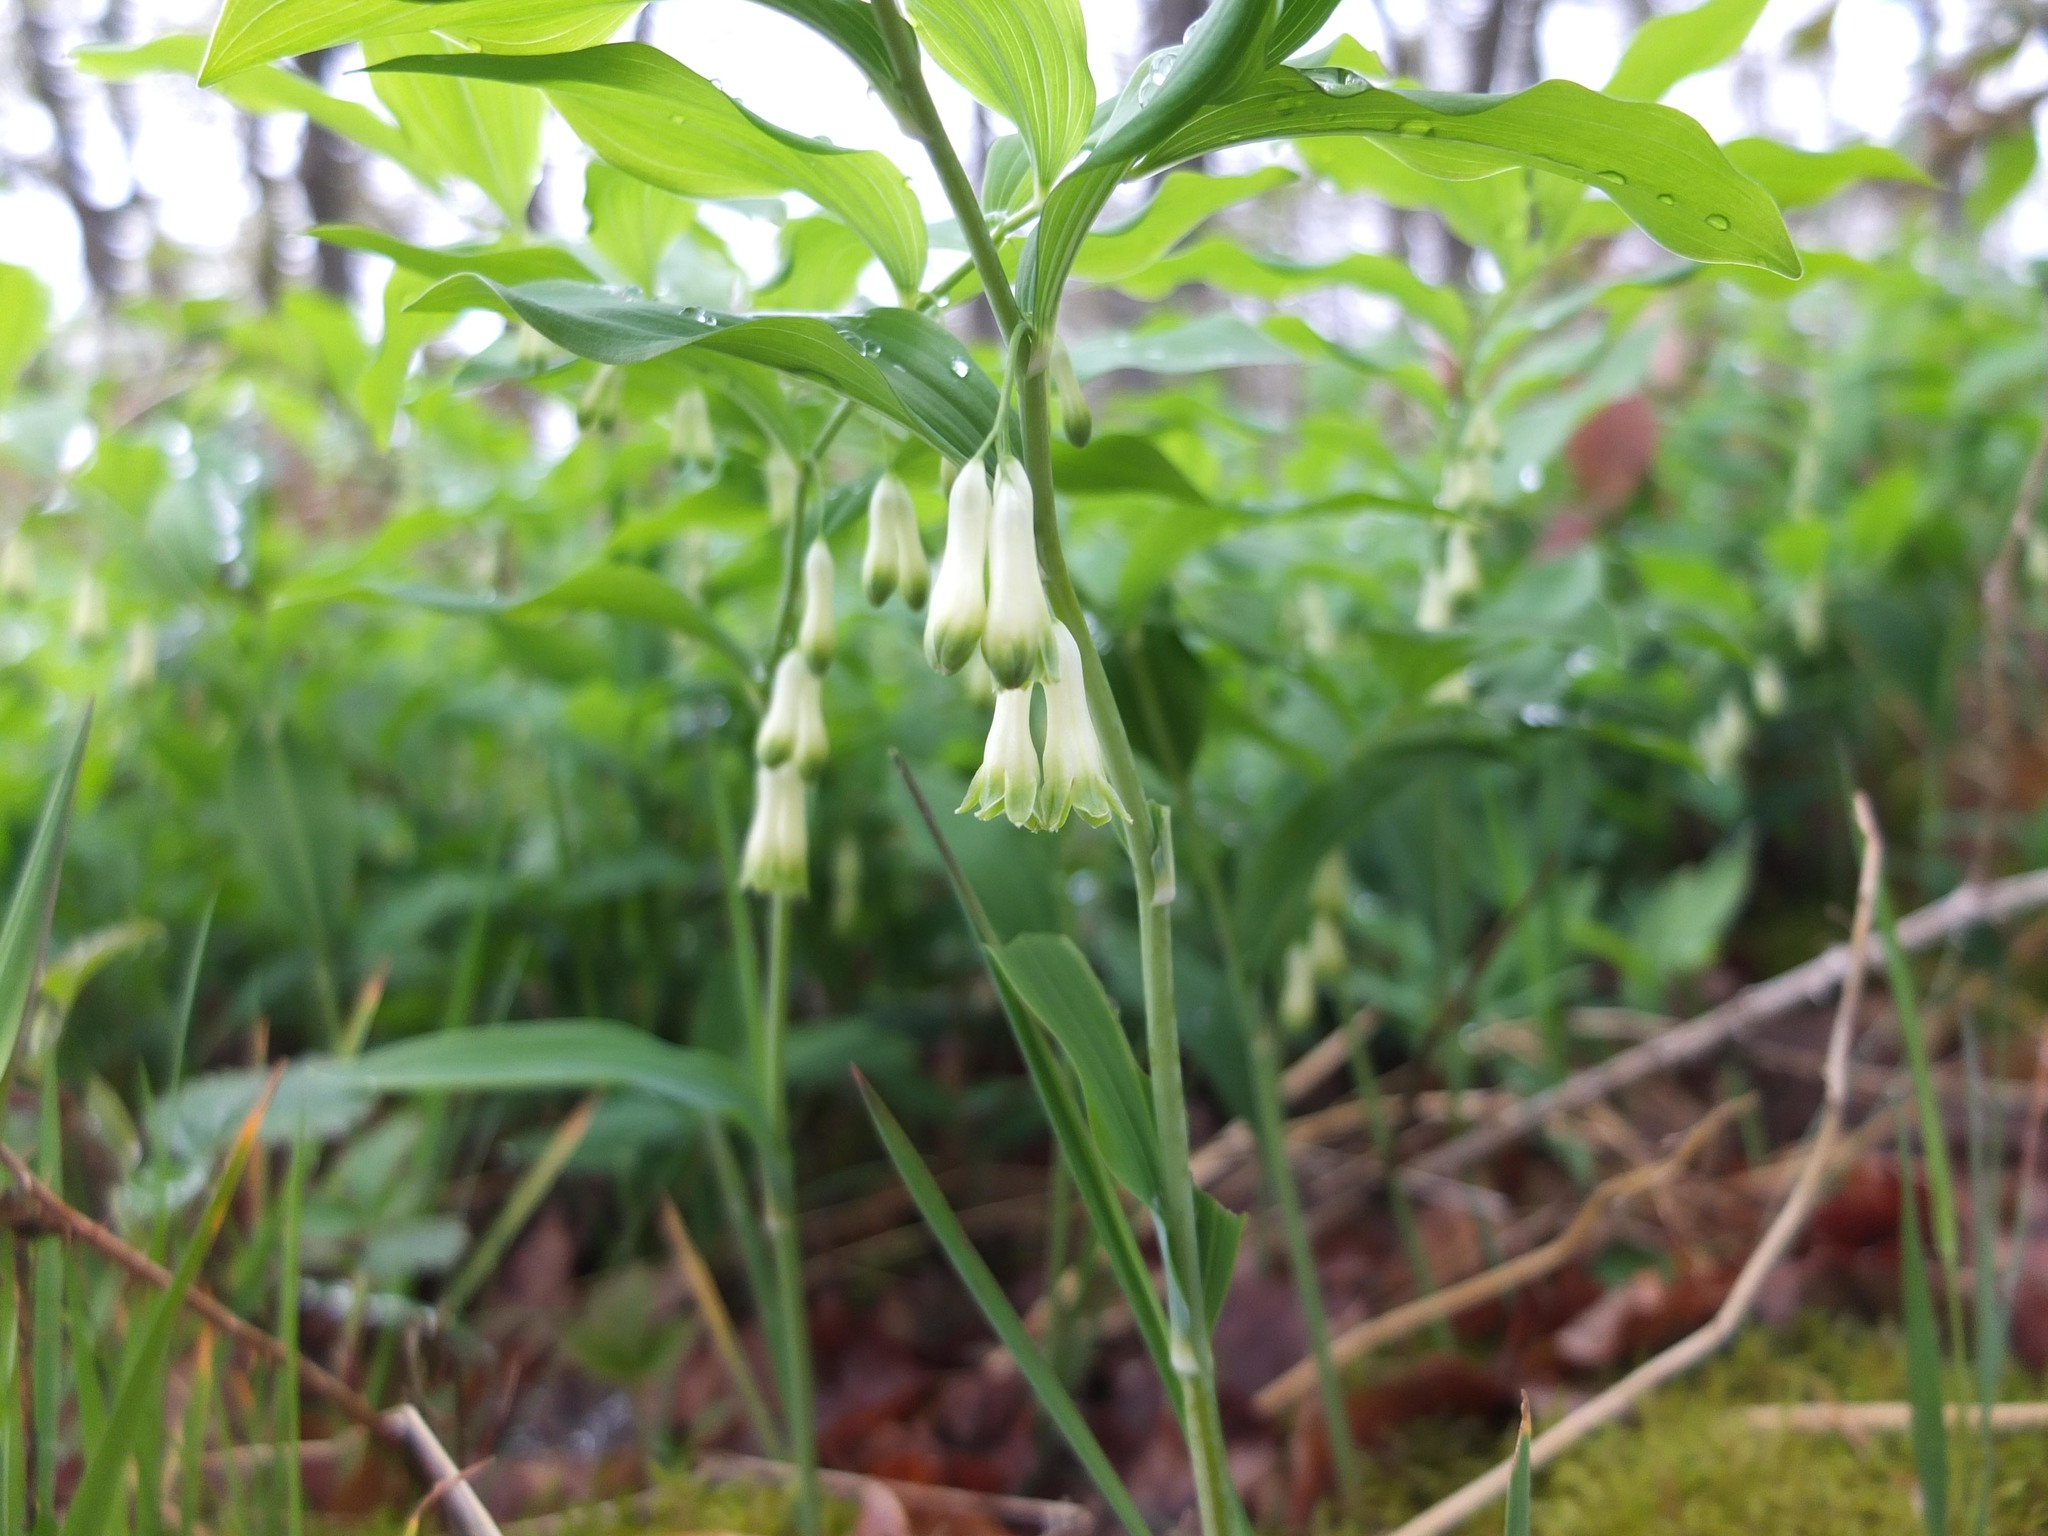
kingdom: Plantae
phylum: Tracheophyta
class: Liliopsida
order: Asparagales
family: Asparagaceae
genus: Polygonatum
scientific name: Polygonatum multiflorum
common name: Solomon's-seal
